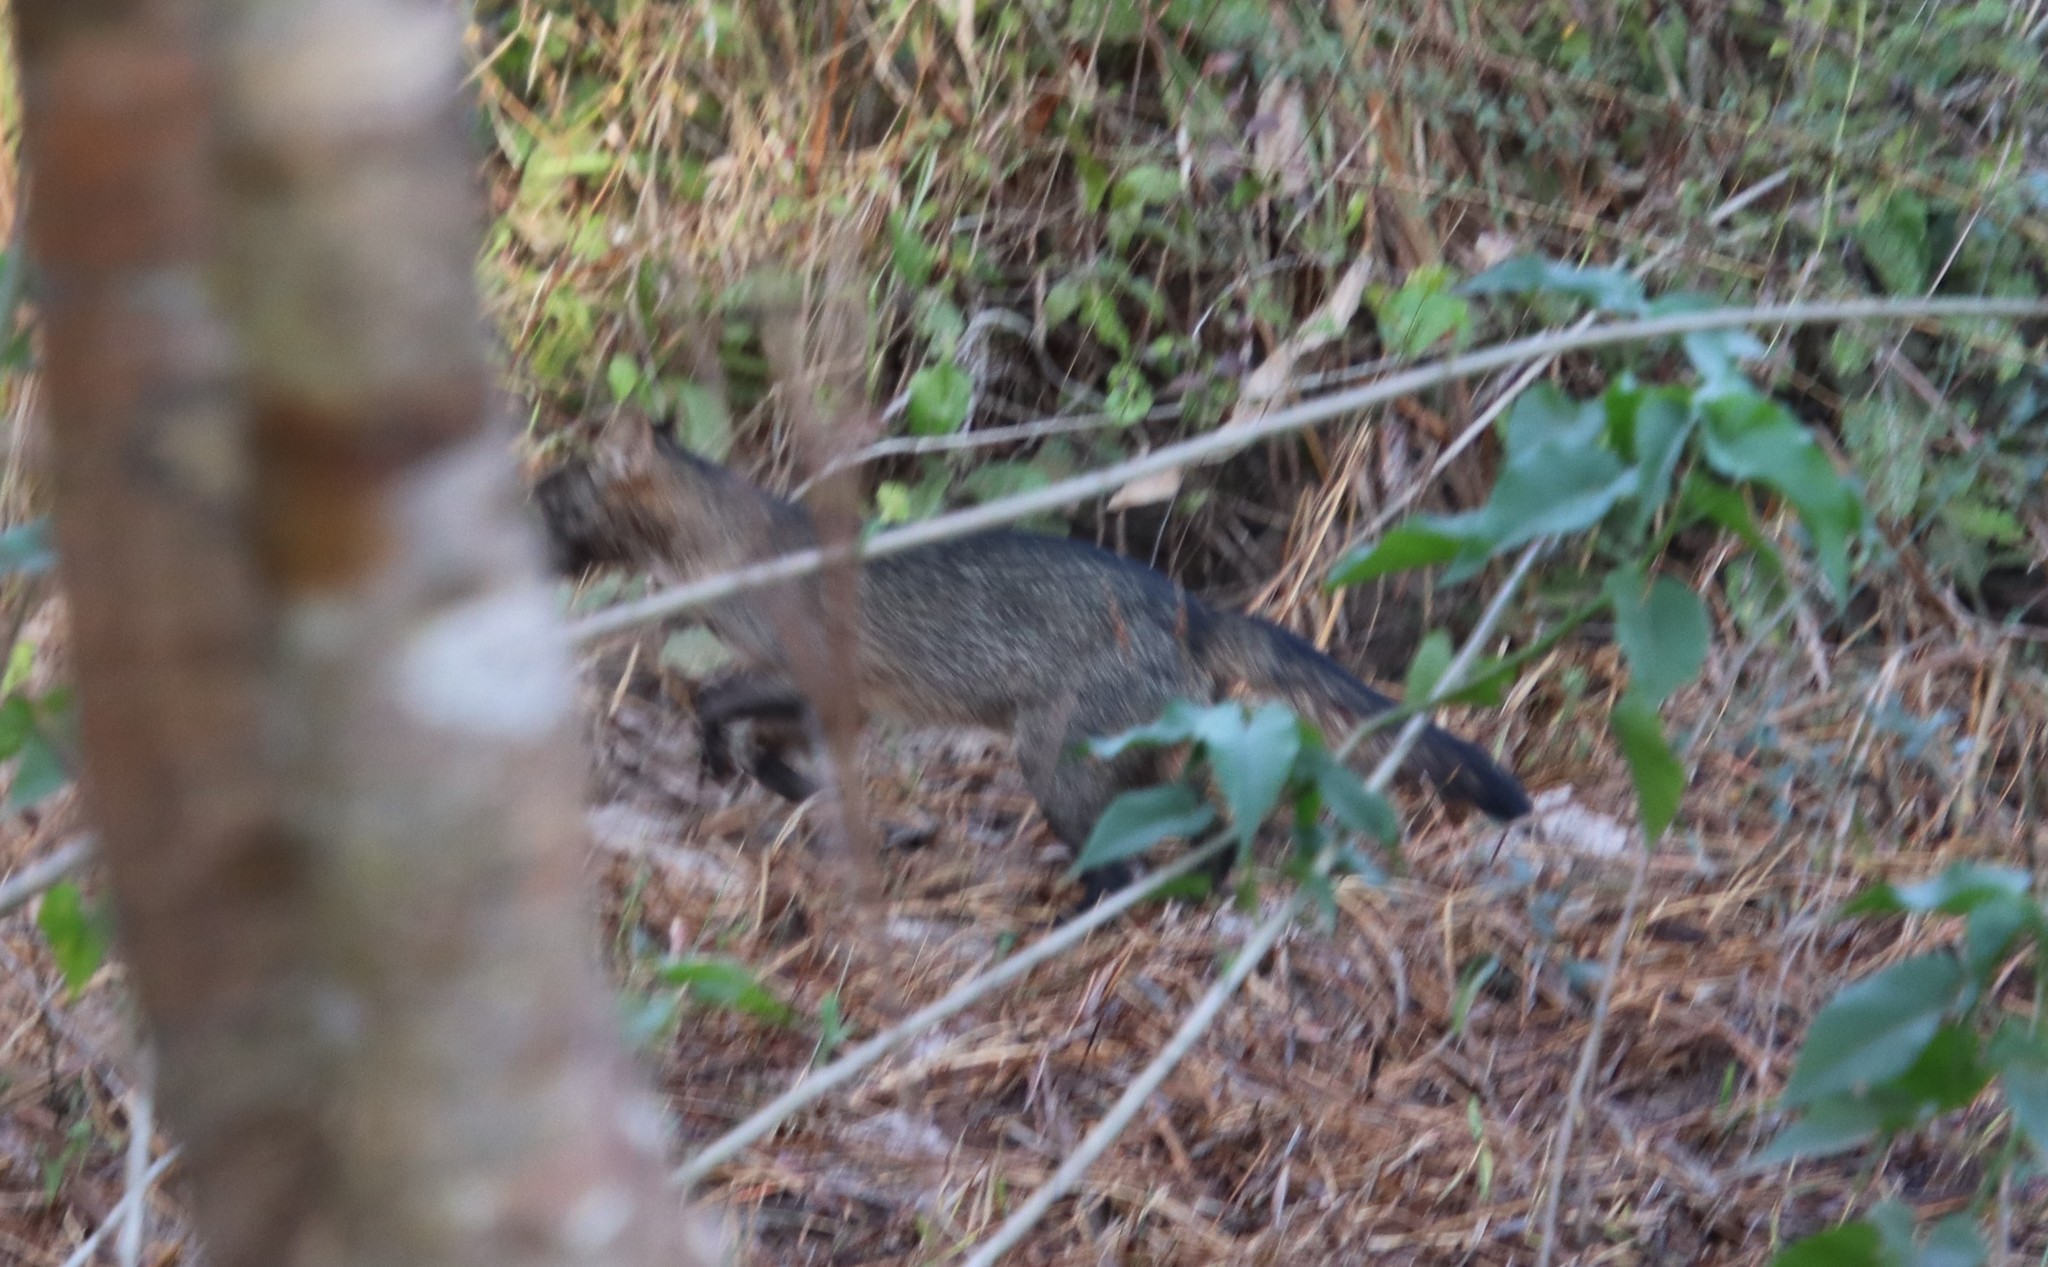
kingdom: Animalia
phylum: Chordata
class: Mammalia
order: Carnivora
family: Canidae
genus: Cerdocyon
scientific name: Cerdocyon thous
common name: Crab-eating fox
